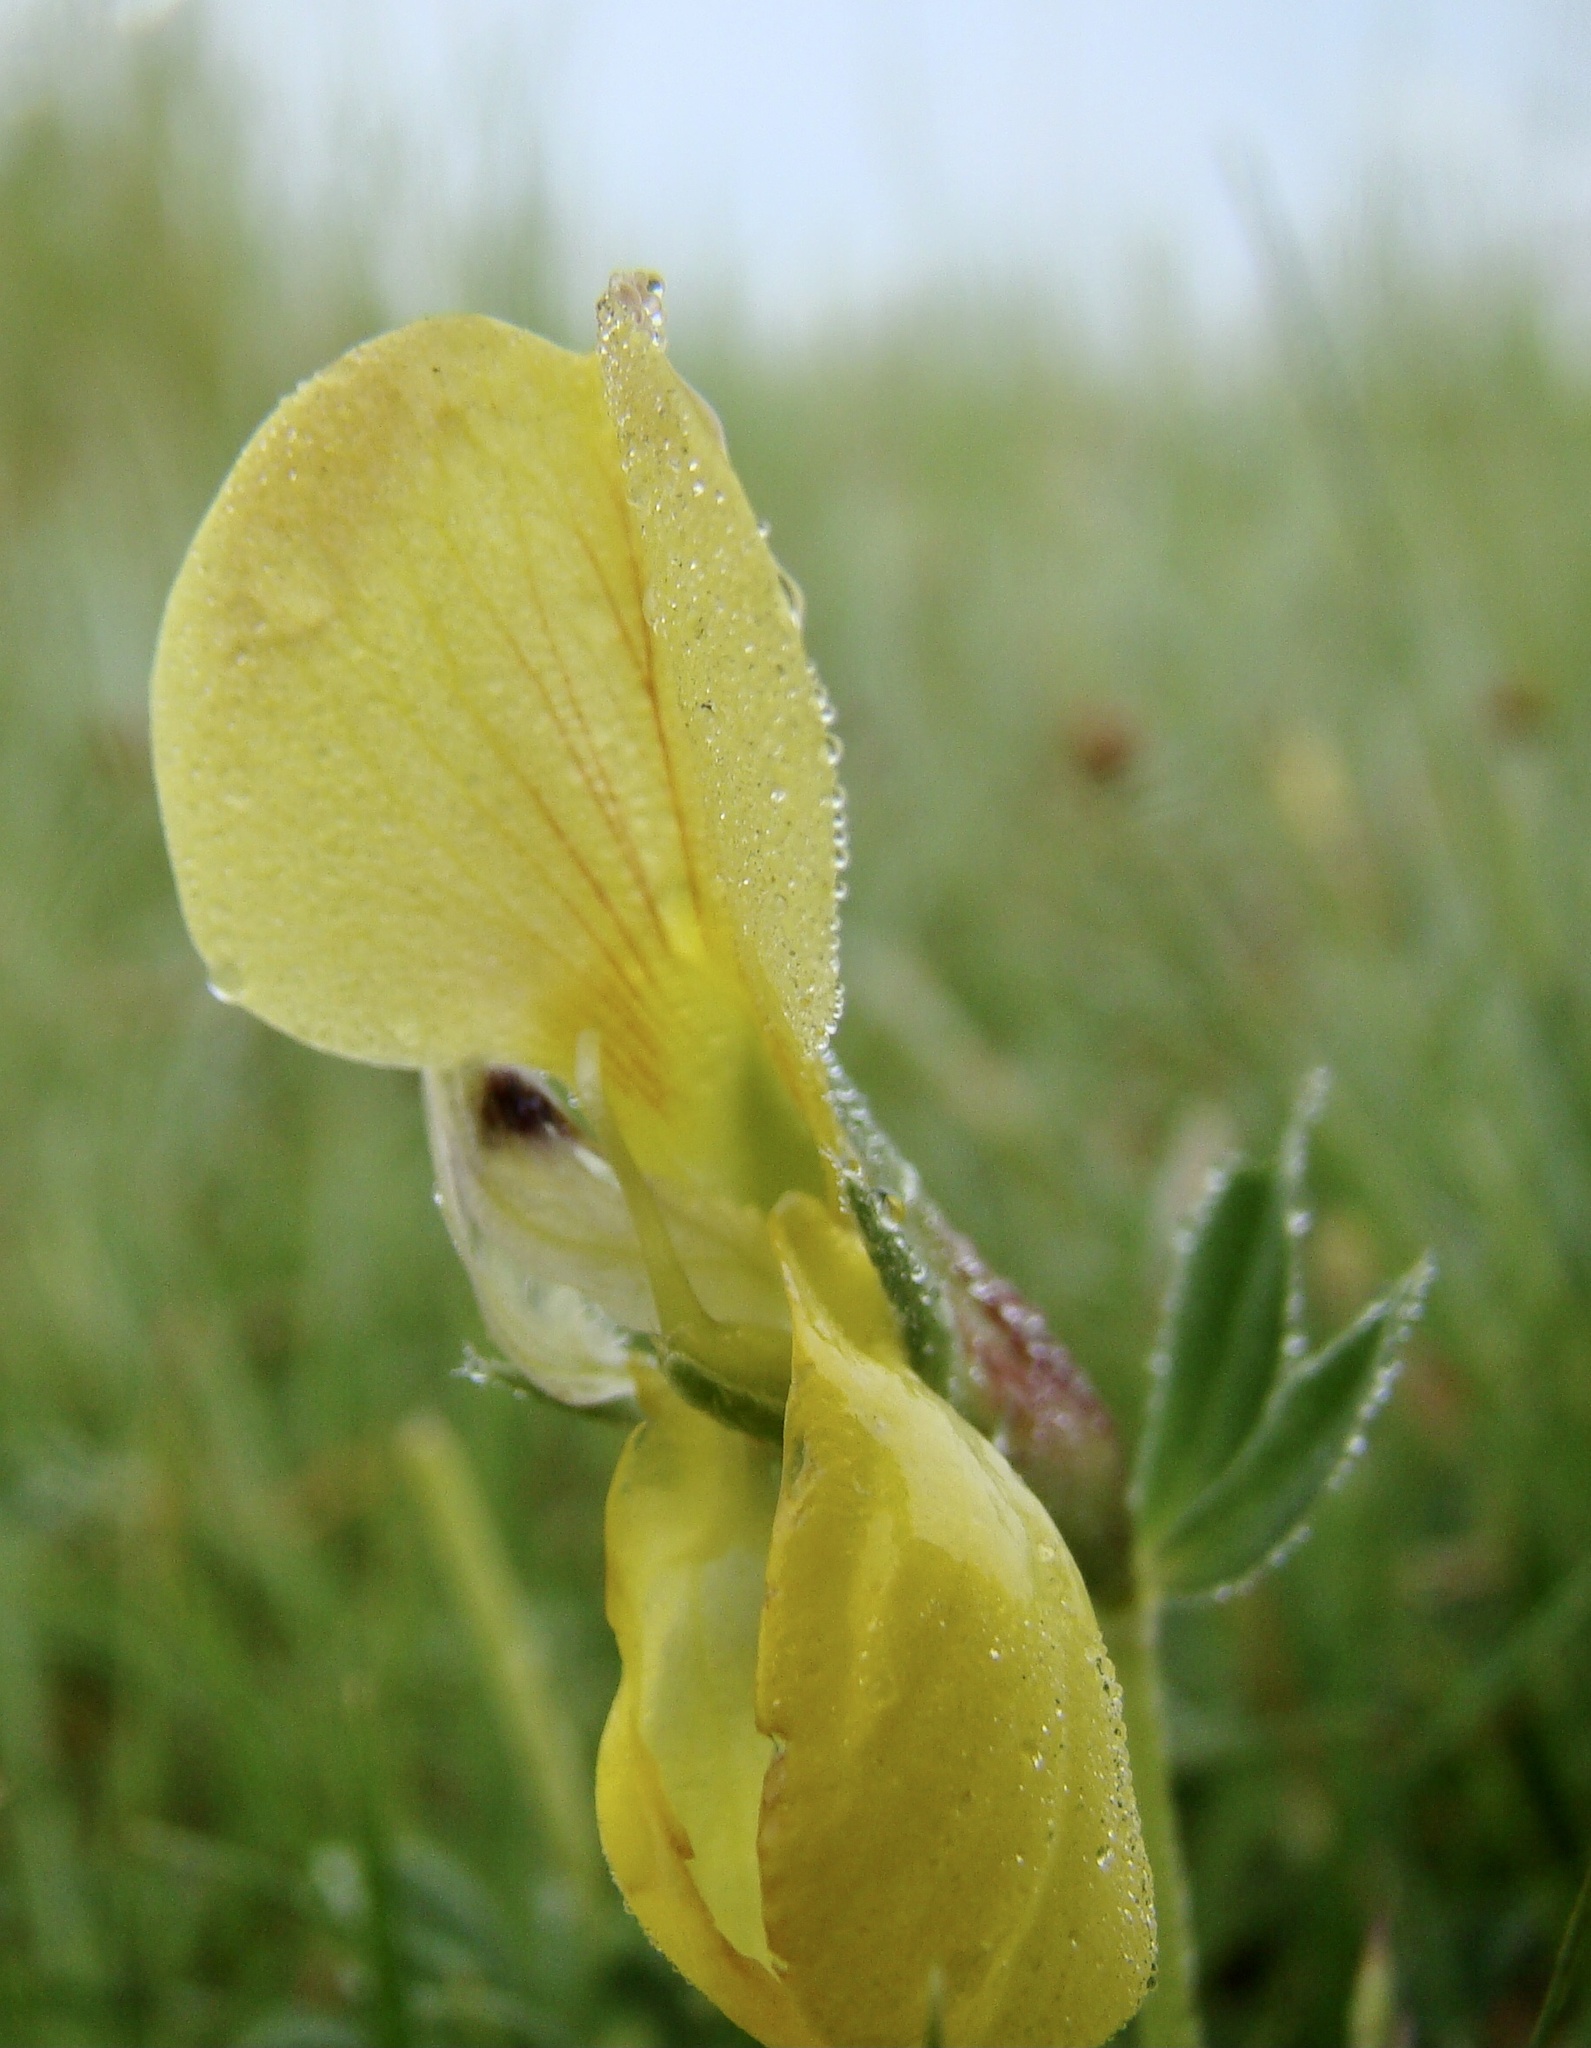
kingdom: Plantae
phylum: Tracheophyta
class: Magnoliopsida
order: Fabales
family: Fabaceae
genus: Lotus
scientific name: Lotus maritimus
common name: Dragon's-teeth
